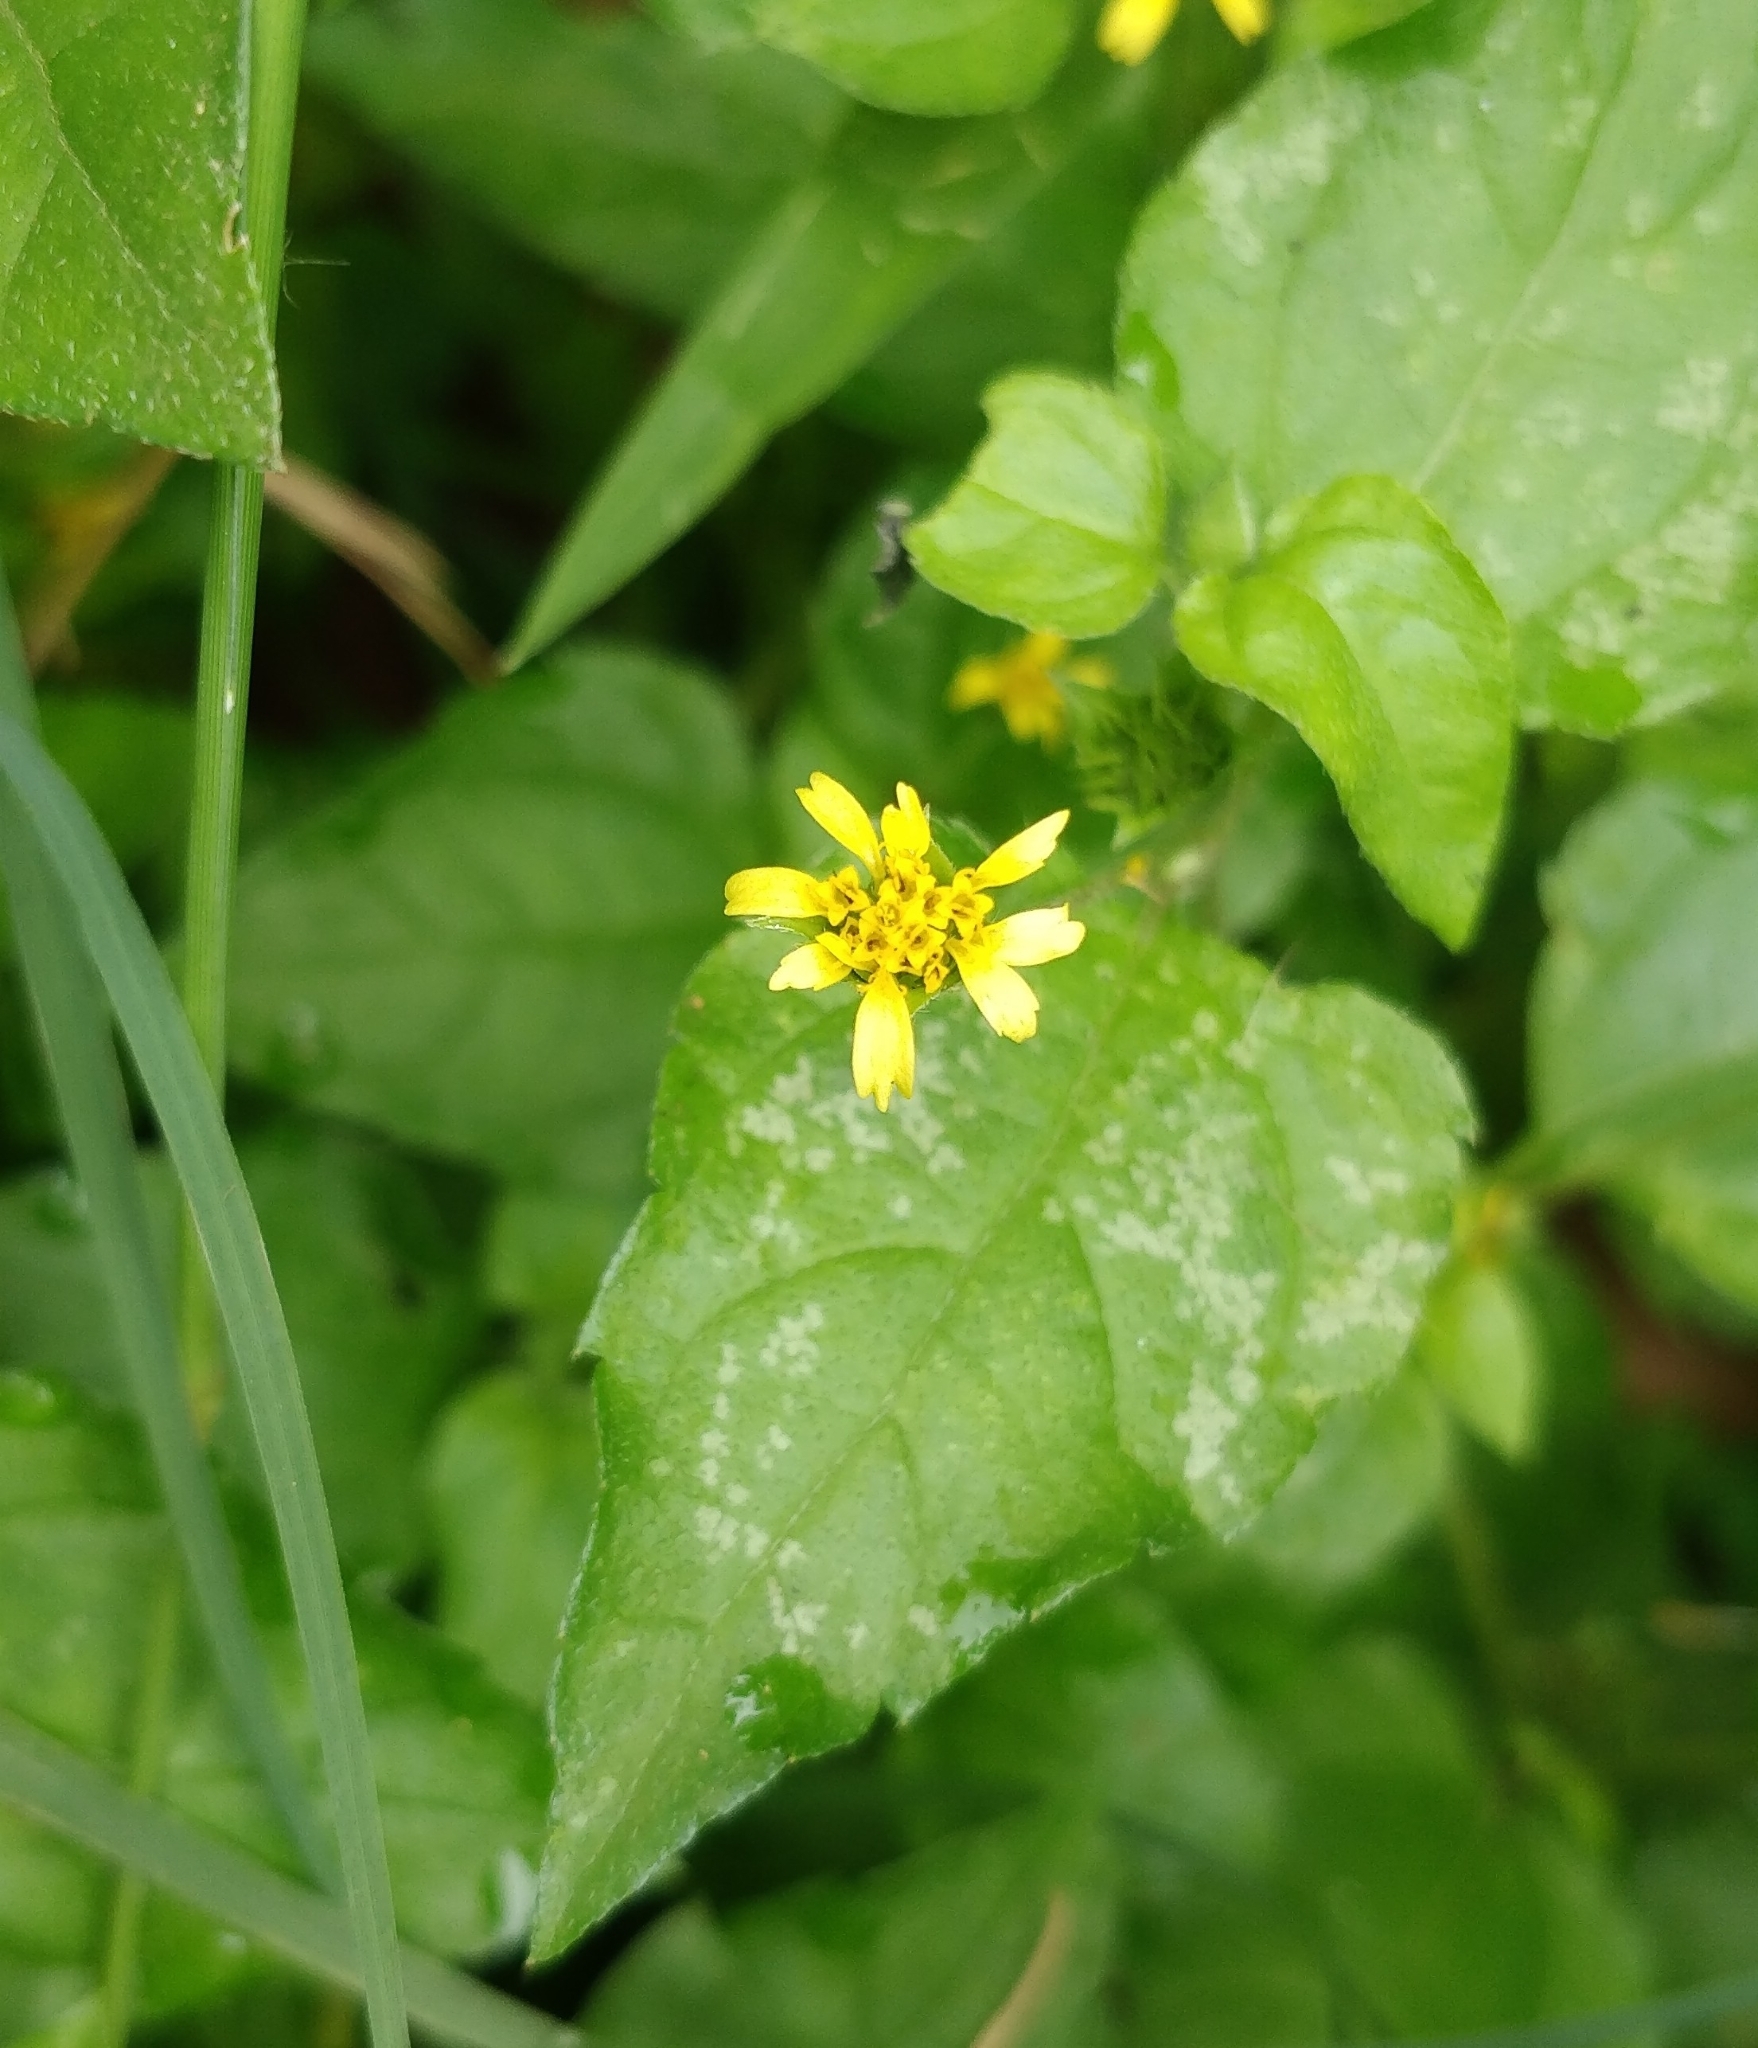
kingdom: Plantae
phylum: Tracheophyta
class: Magnoliopsida
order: Asterales
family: Asteraceae
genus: Calyptocarpus
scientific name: Calyptocarpus vialis
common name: Straggler daisy
